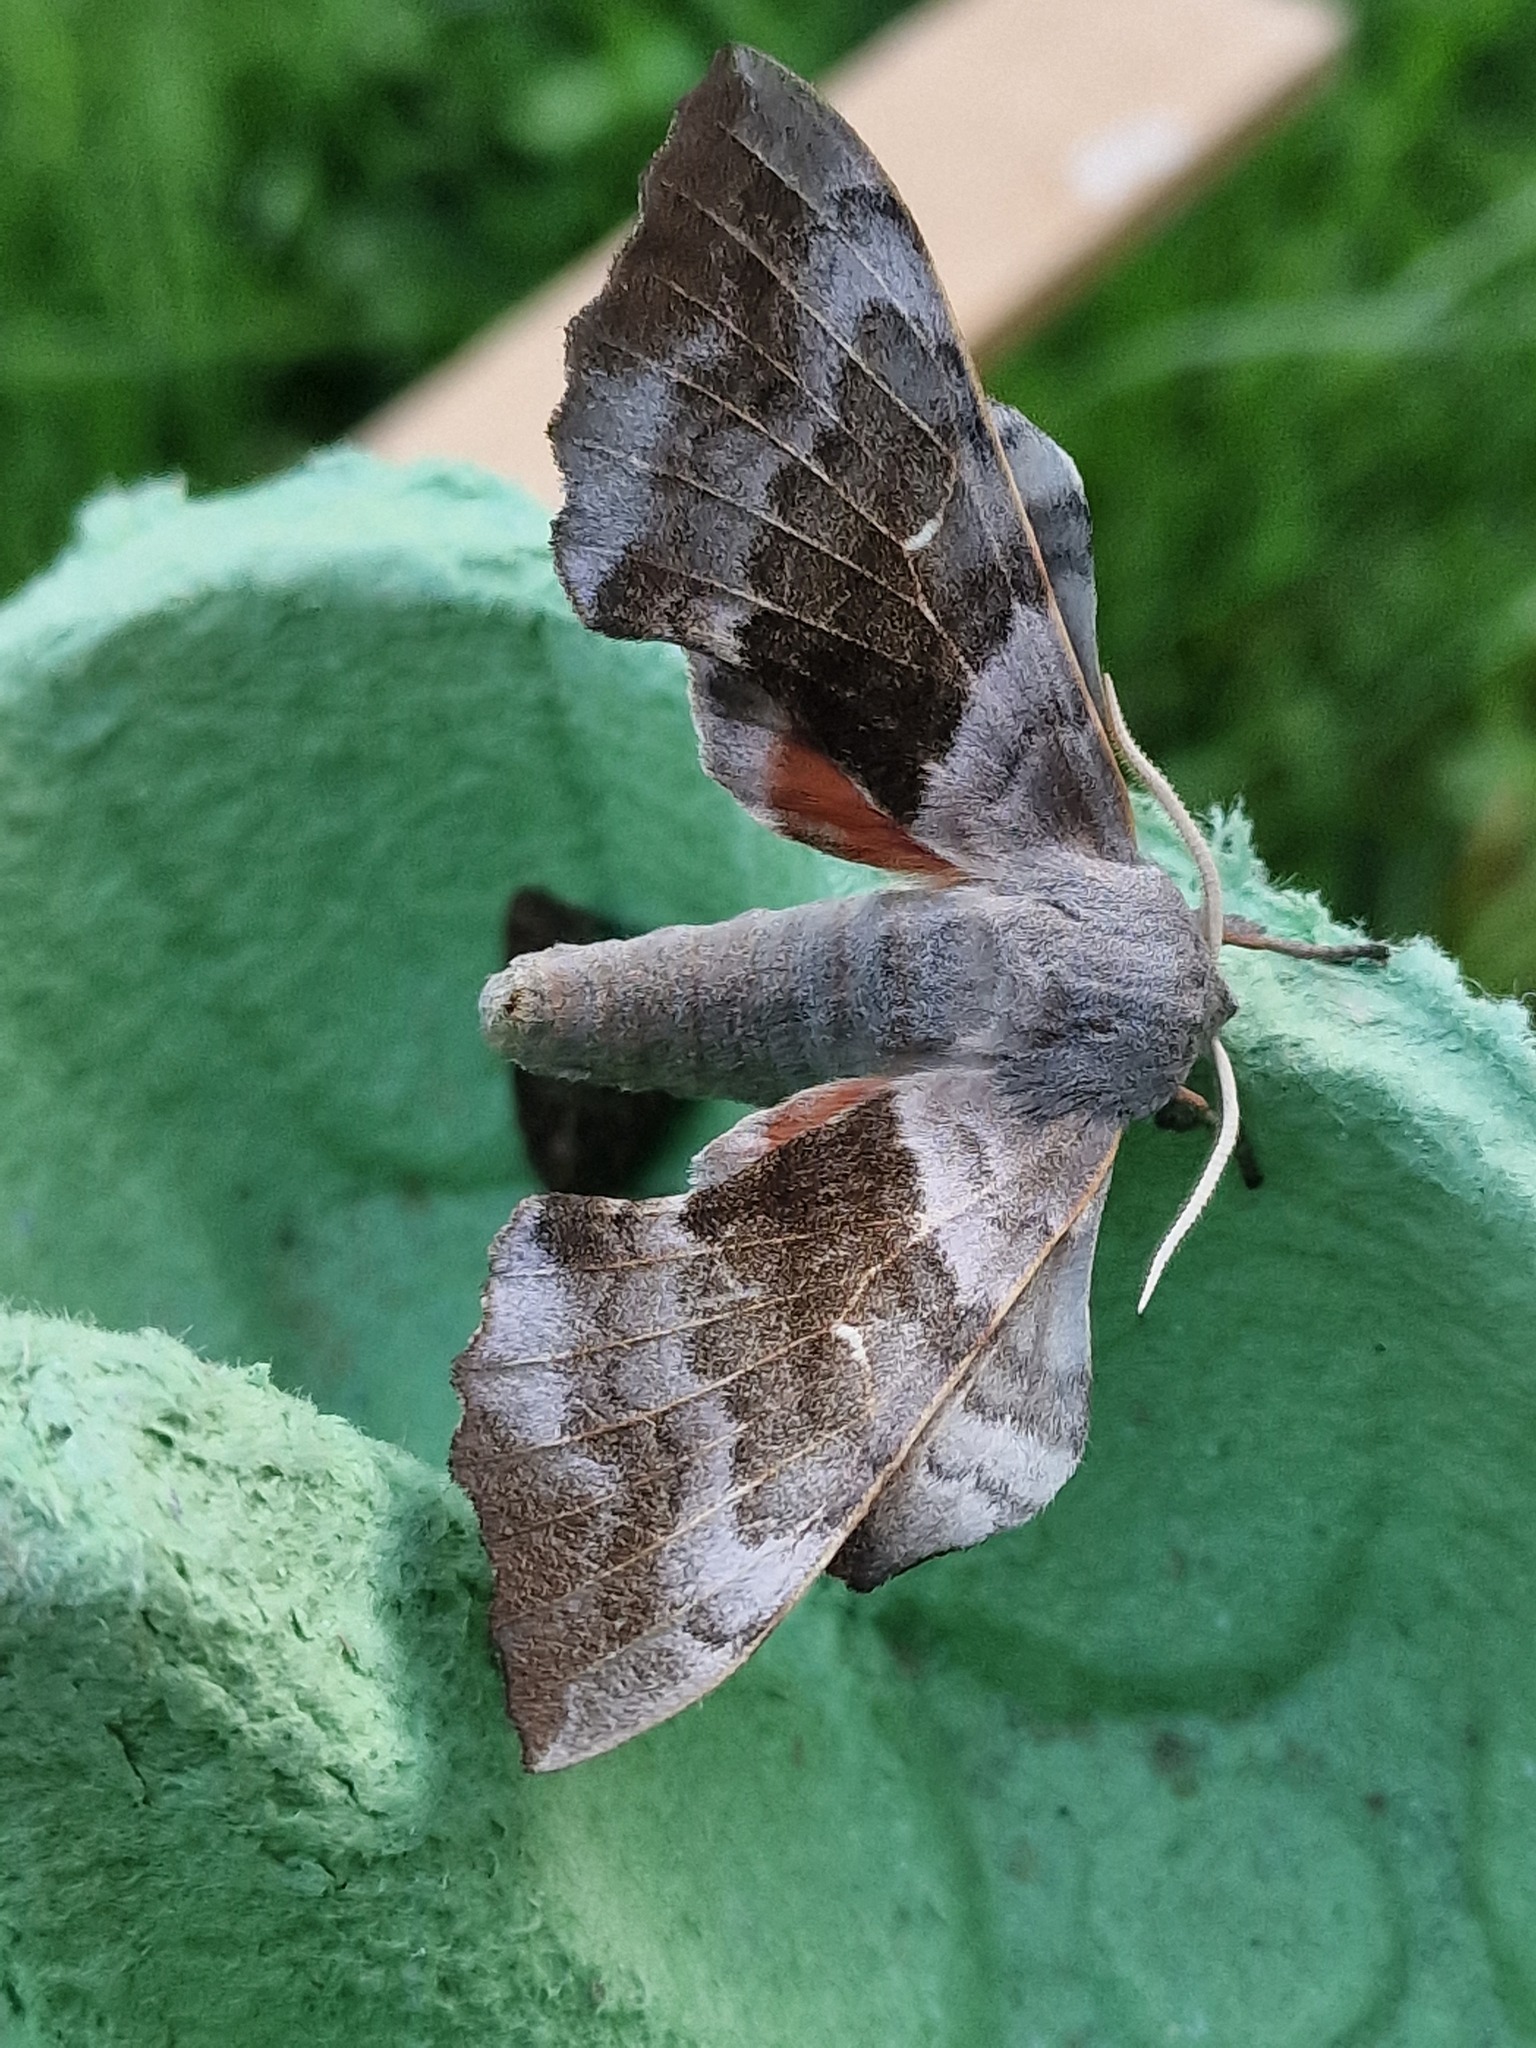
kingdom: Animalia
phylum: Arthropoda
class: Insecta
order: Lepidoptera
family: Sphingidae
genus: Laothoe
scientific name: Laothoe populi
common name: Poplar hawk-moth
